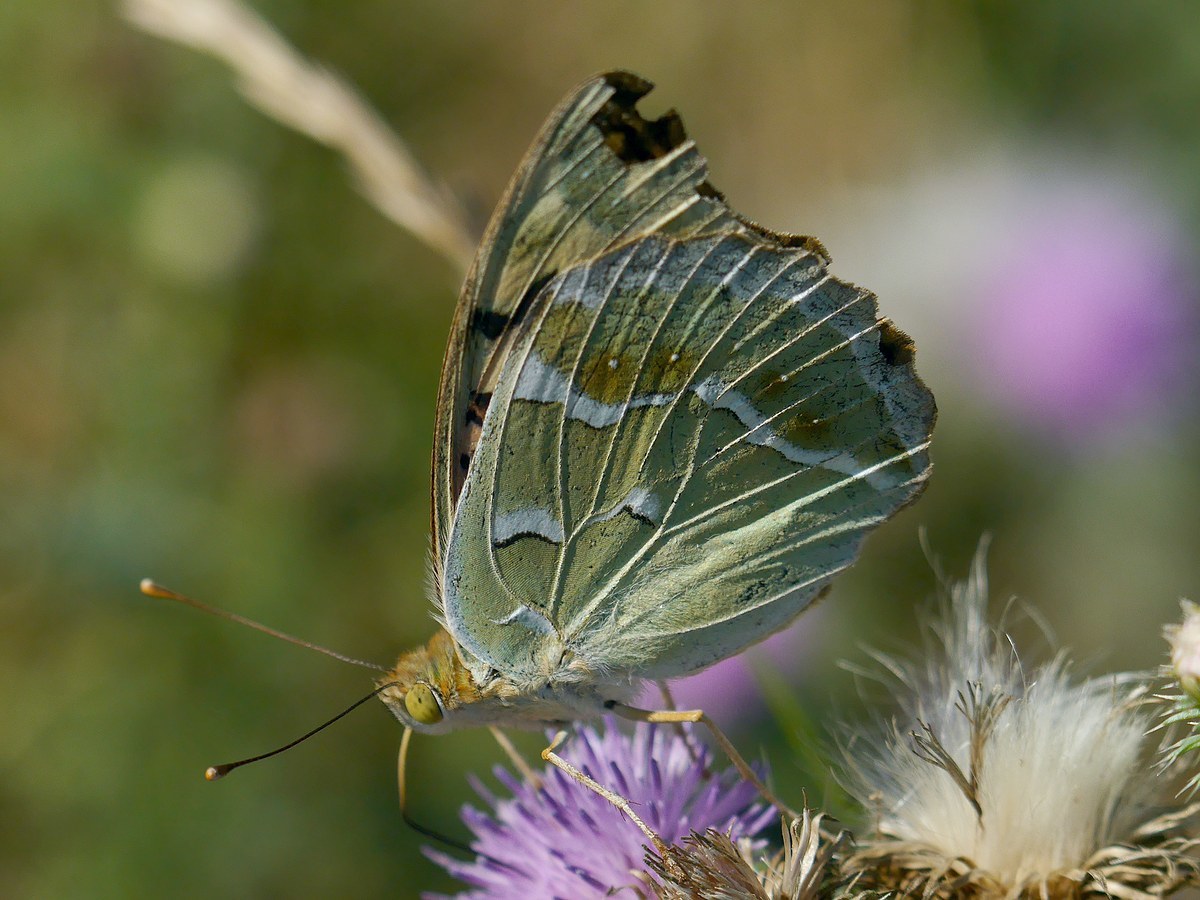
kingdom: Animalia
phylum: Arthropoda
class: Insecta
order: Lepidoptera
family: Nymphalidae
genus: Damora
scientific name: Damora pandora
